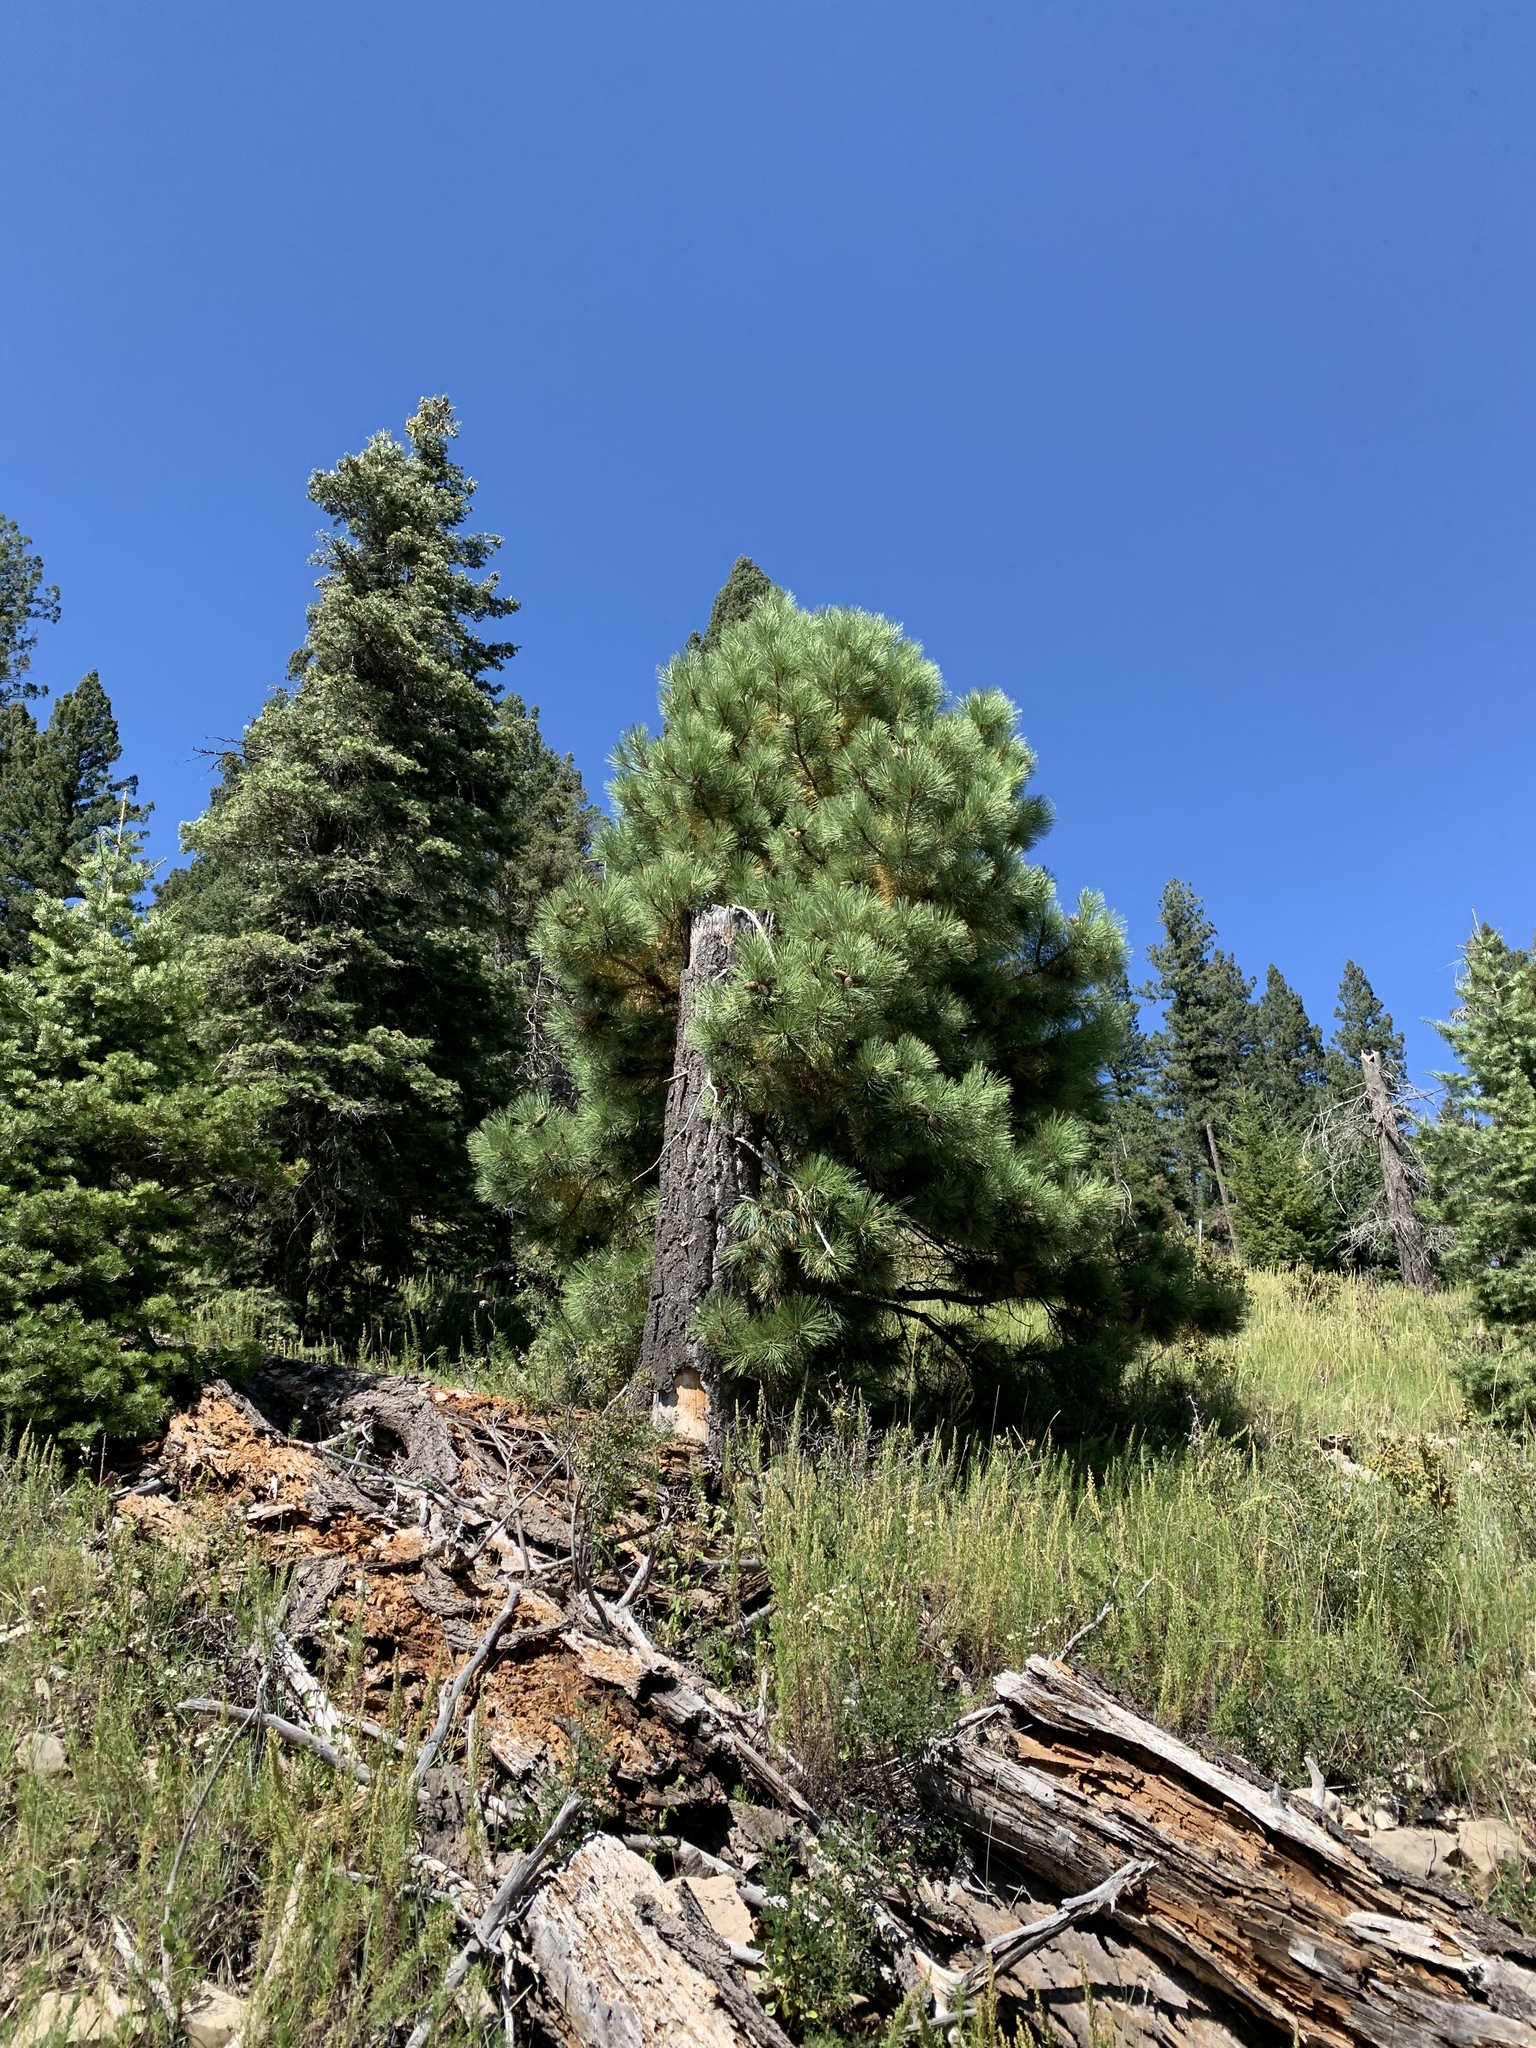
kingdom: Plantae
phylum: Tracheophyta
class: Pinopsida
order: Pinales
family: Pinaceae
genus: Pinus
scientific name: Pinus ponderosa
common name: Western yellow-pine
